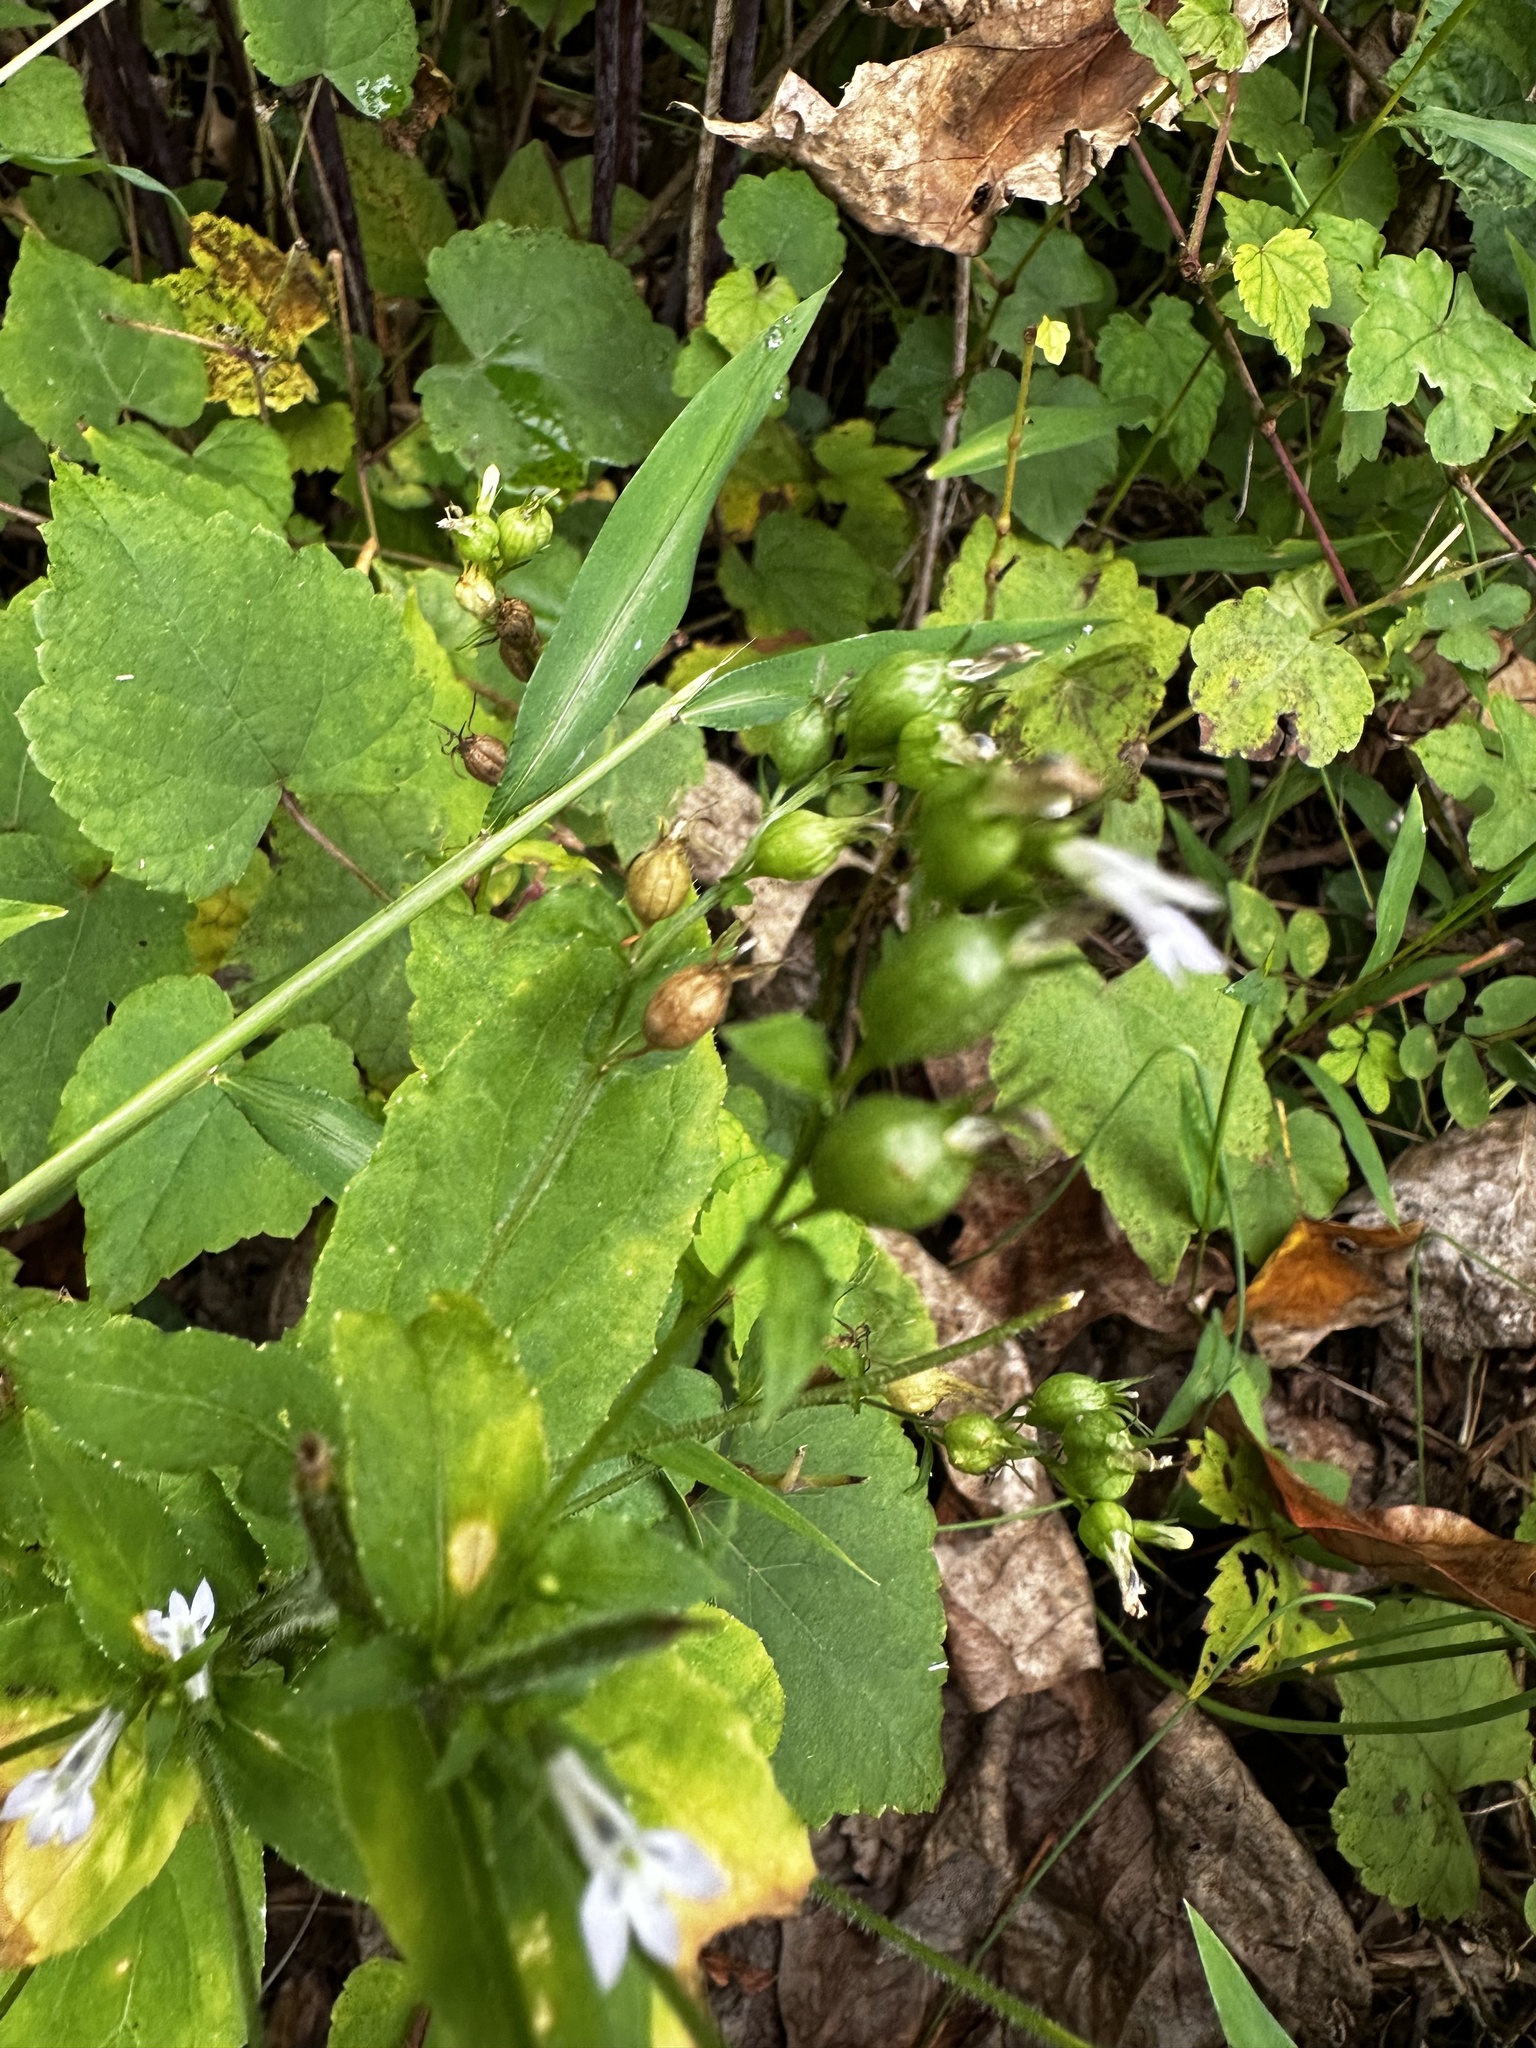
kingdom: Plantae
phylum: Tracheophyta
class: Magnoliopsida
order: Asterales
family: Campanulaceae
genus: Lobelia
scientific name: Lobelia inflata
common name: Indian tobacco
